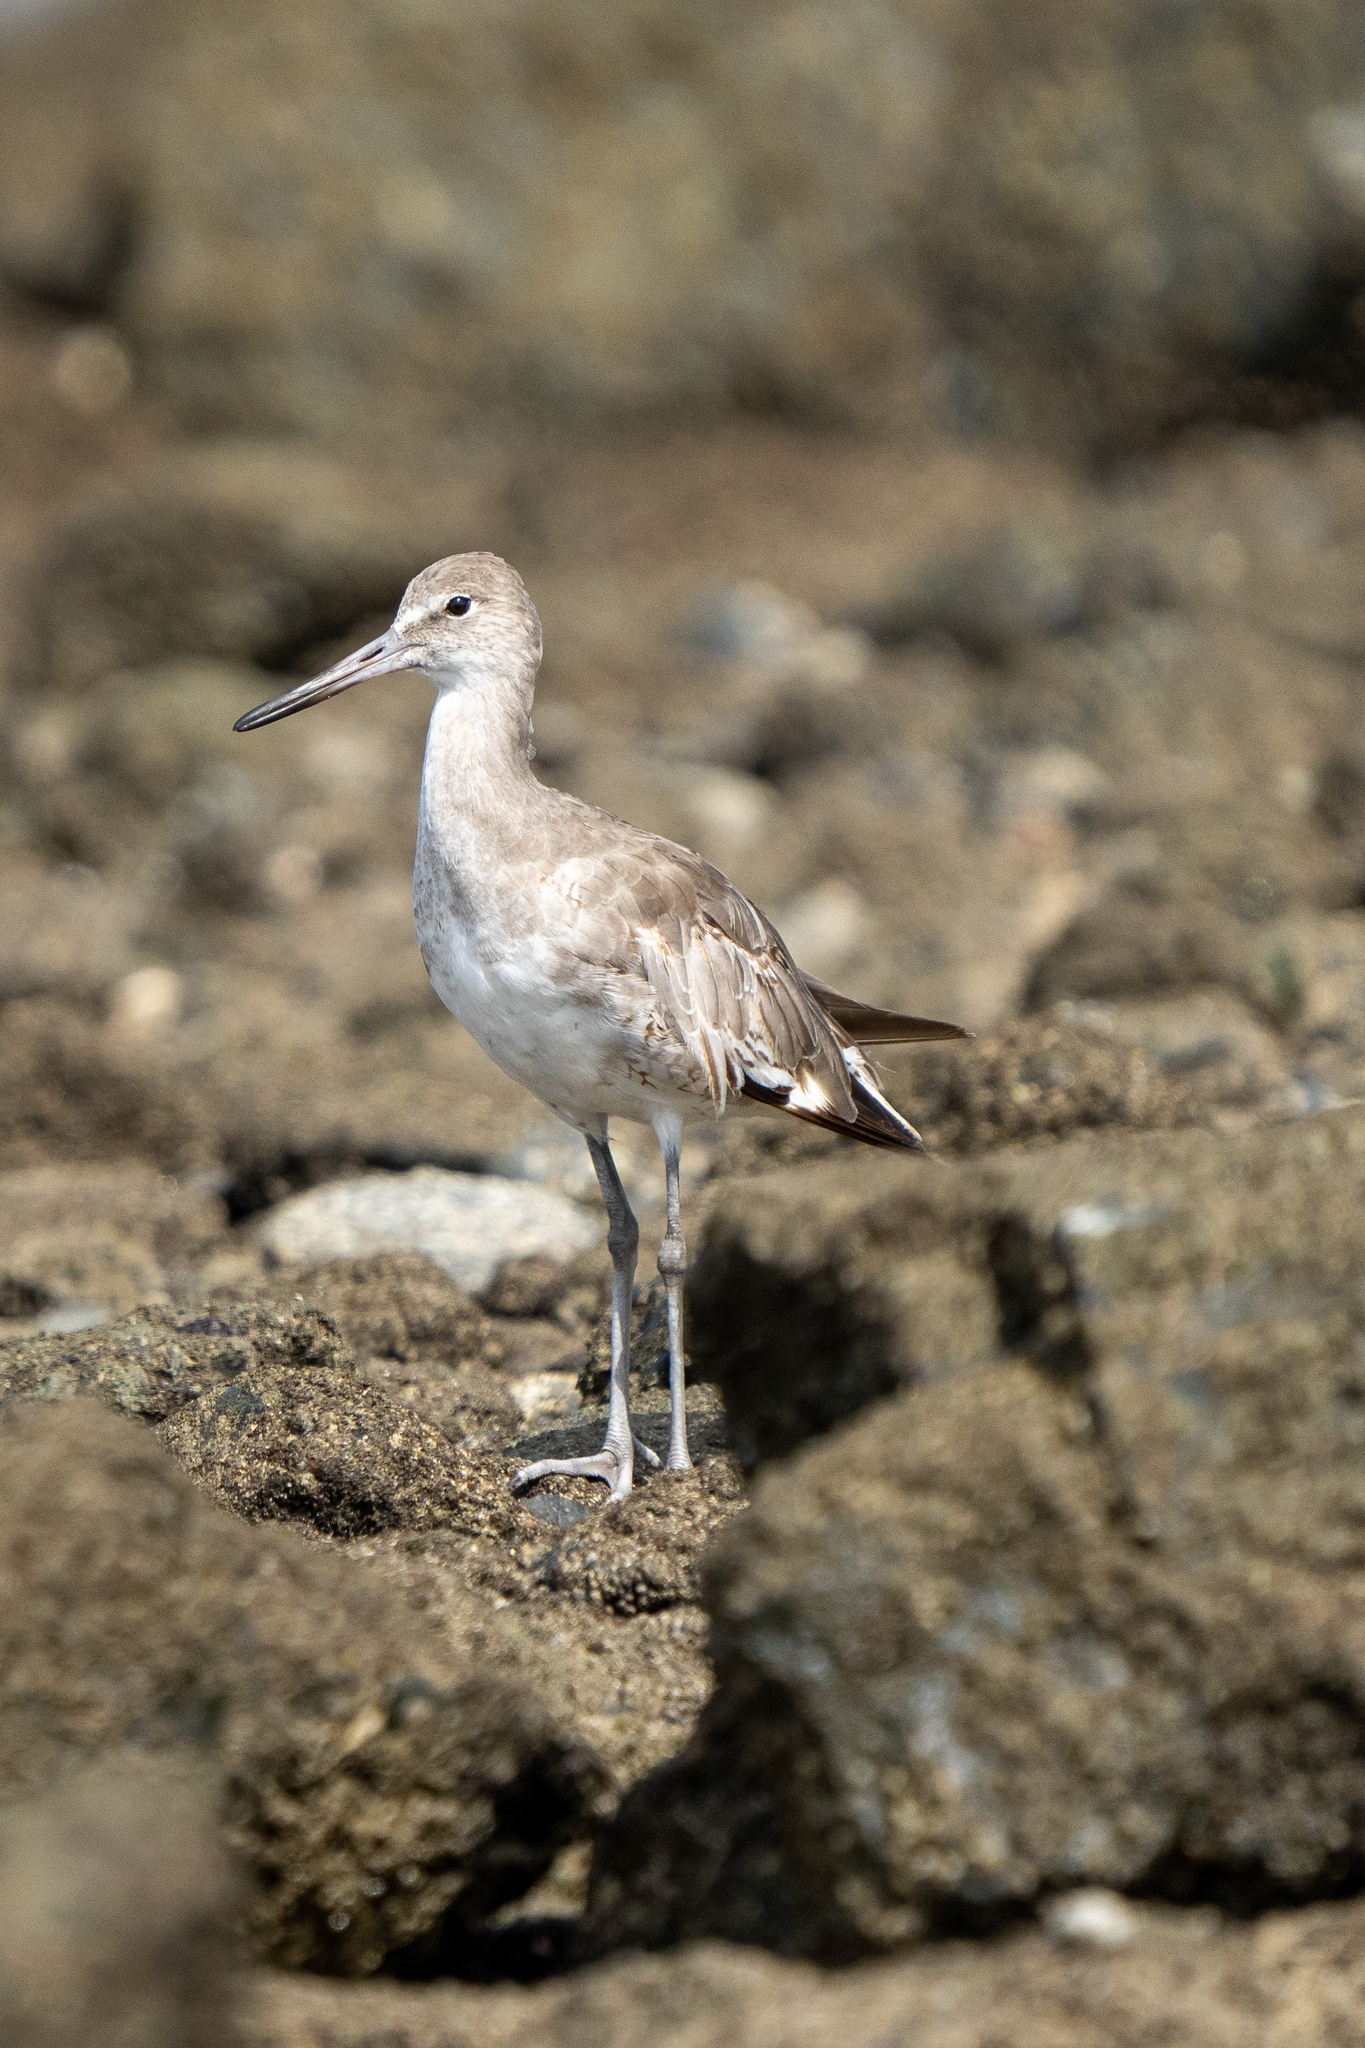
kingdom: Animalia
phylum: Chordata
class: Aves
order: Charadriiformes
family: Scolopacidae
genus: Tringa
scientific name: Tringa semipalmata
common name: Willet
